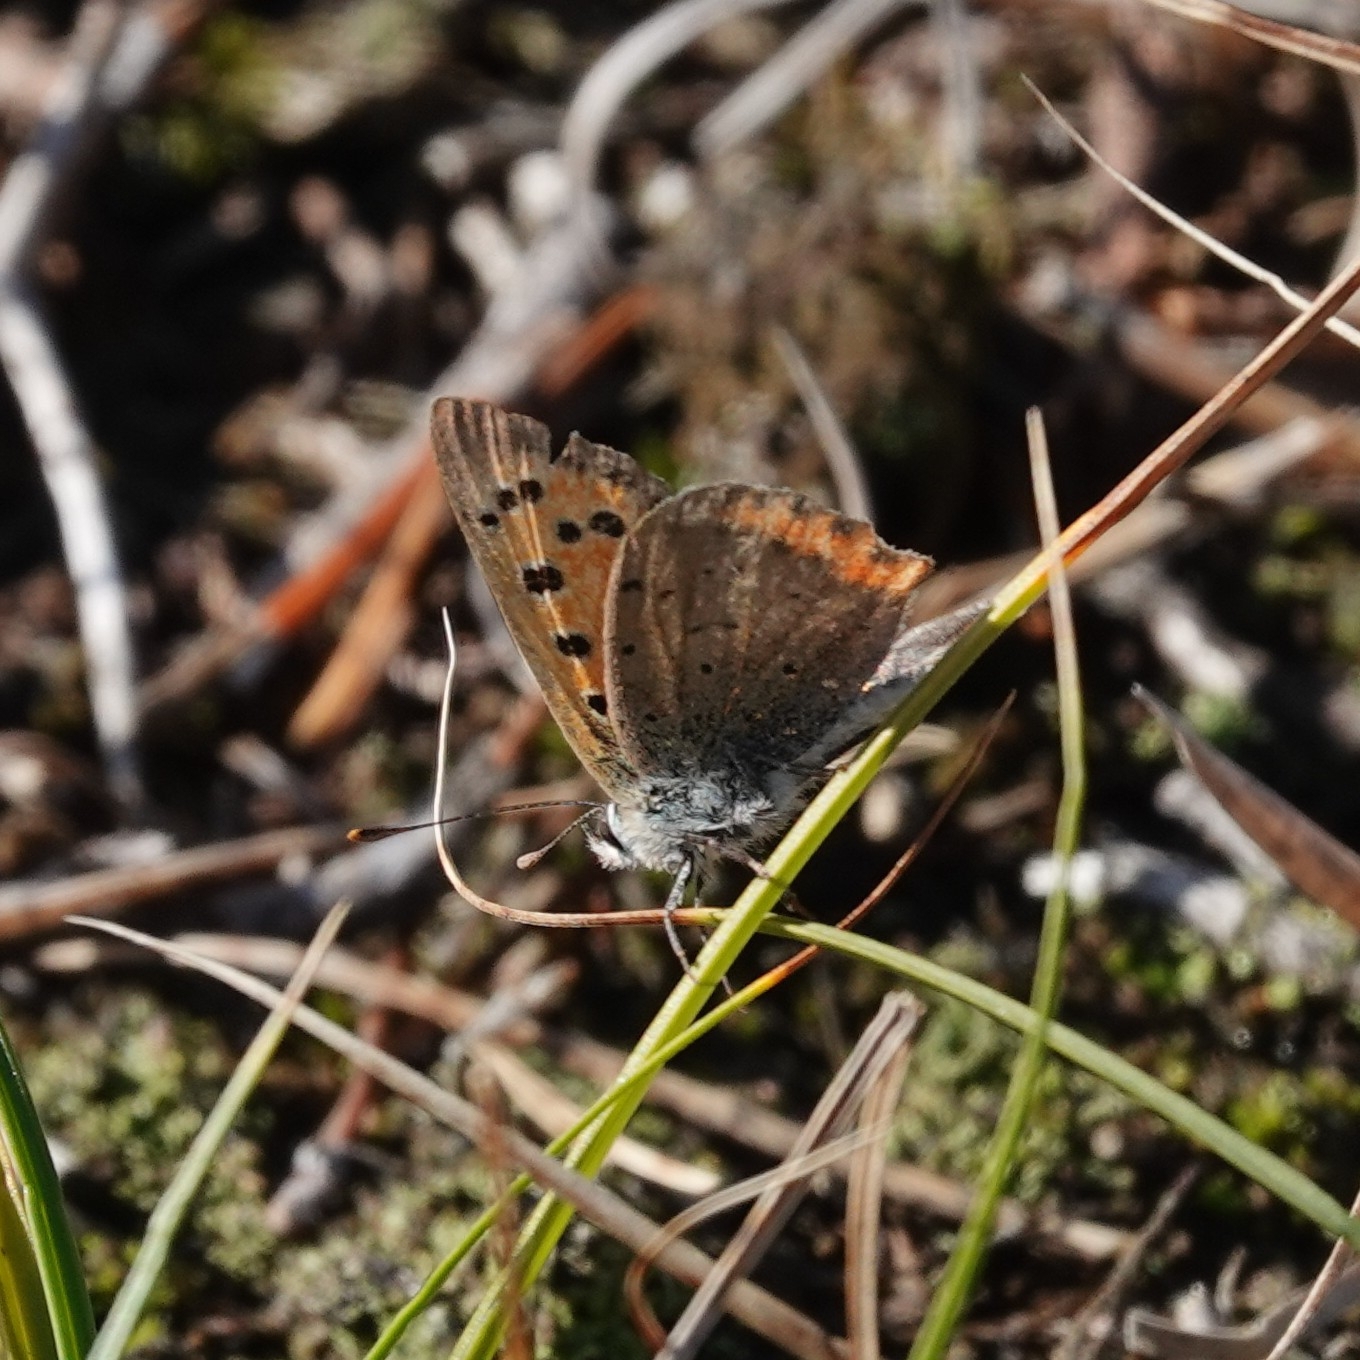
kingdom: Animalia
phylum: Arthropoda
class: Insecta
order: Lepidoptera
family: Lycaenidae
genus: Lycaena
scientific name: Lycaena phlaeas
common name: Small copper
